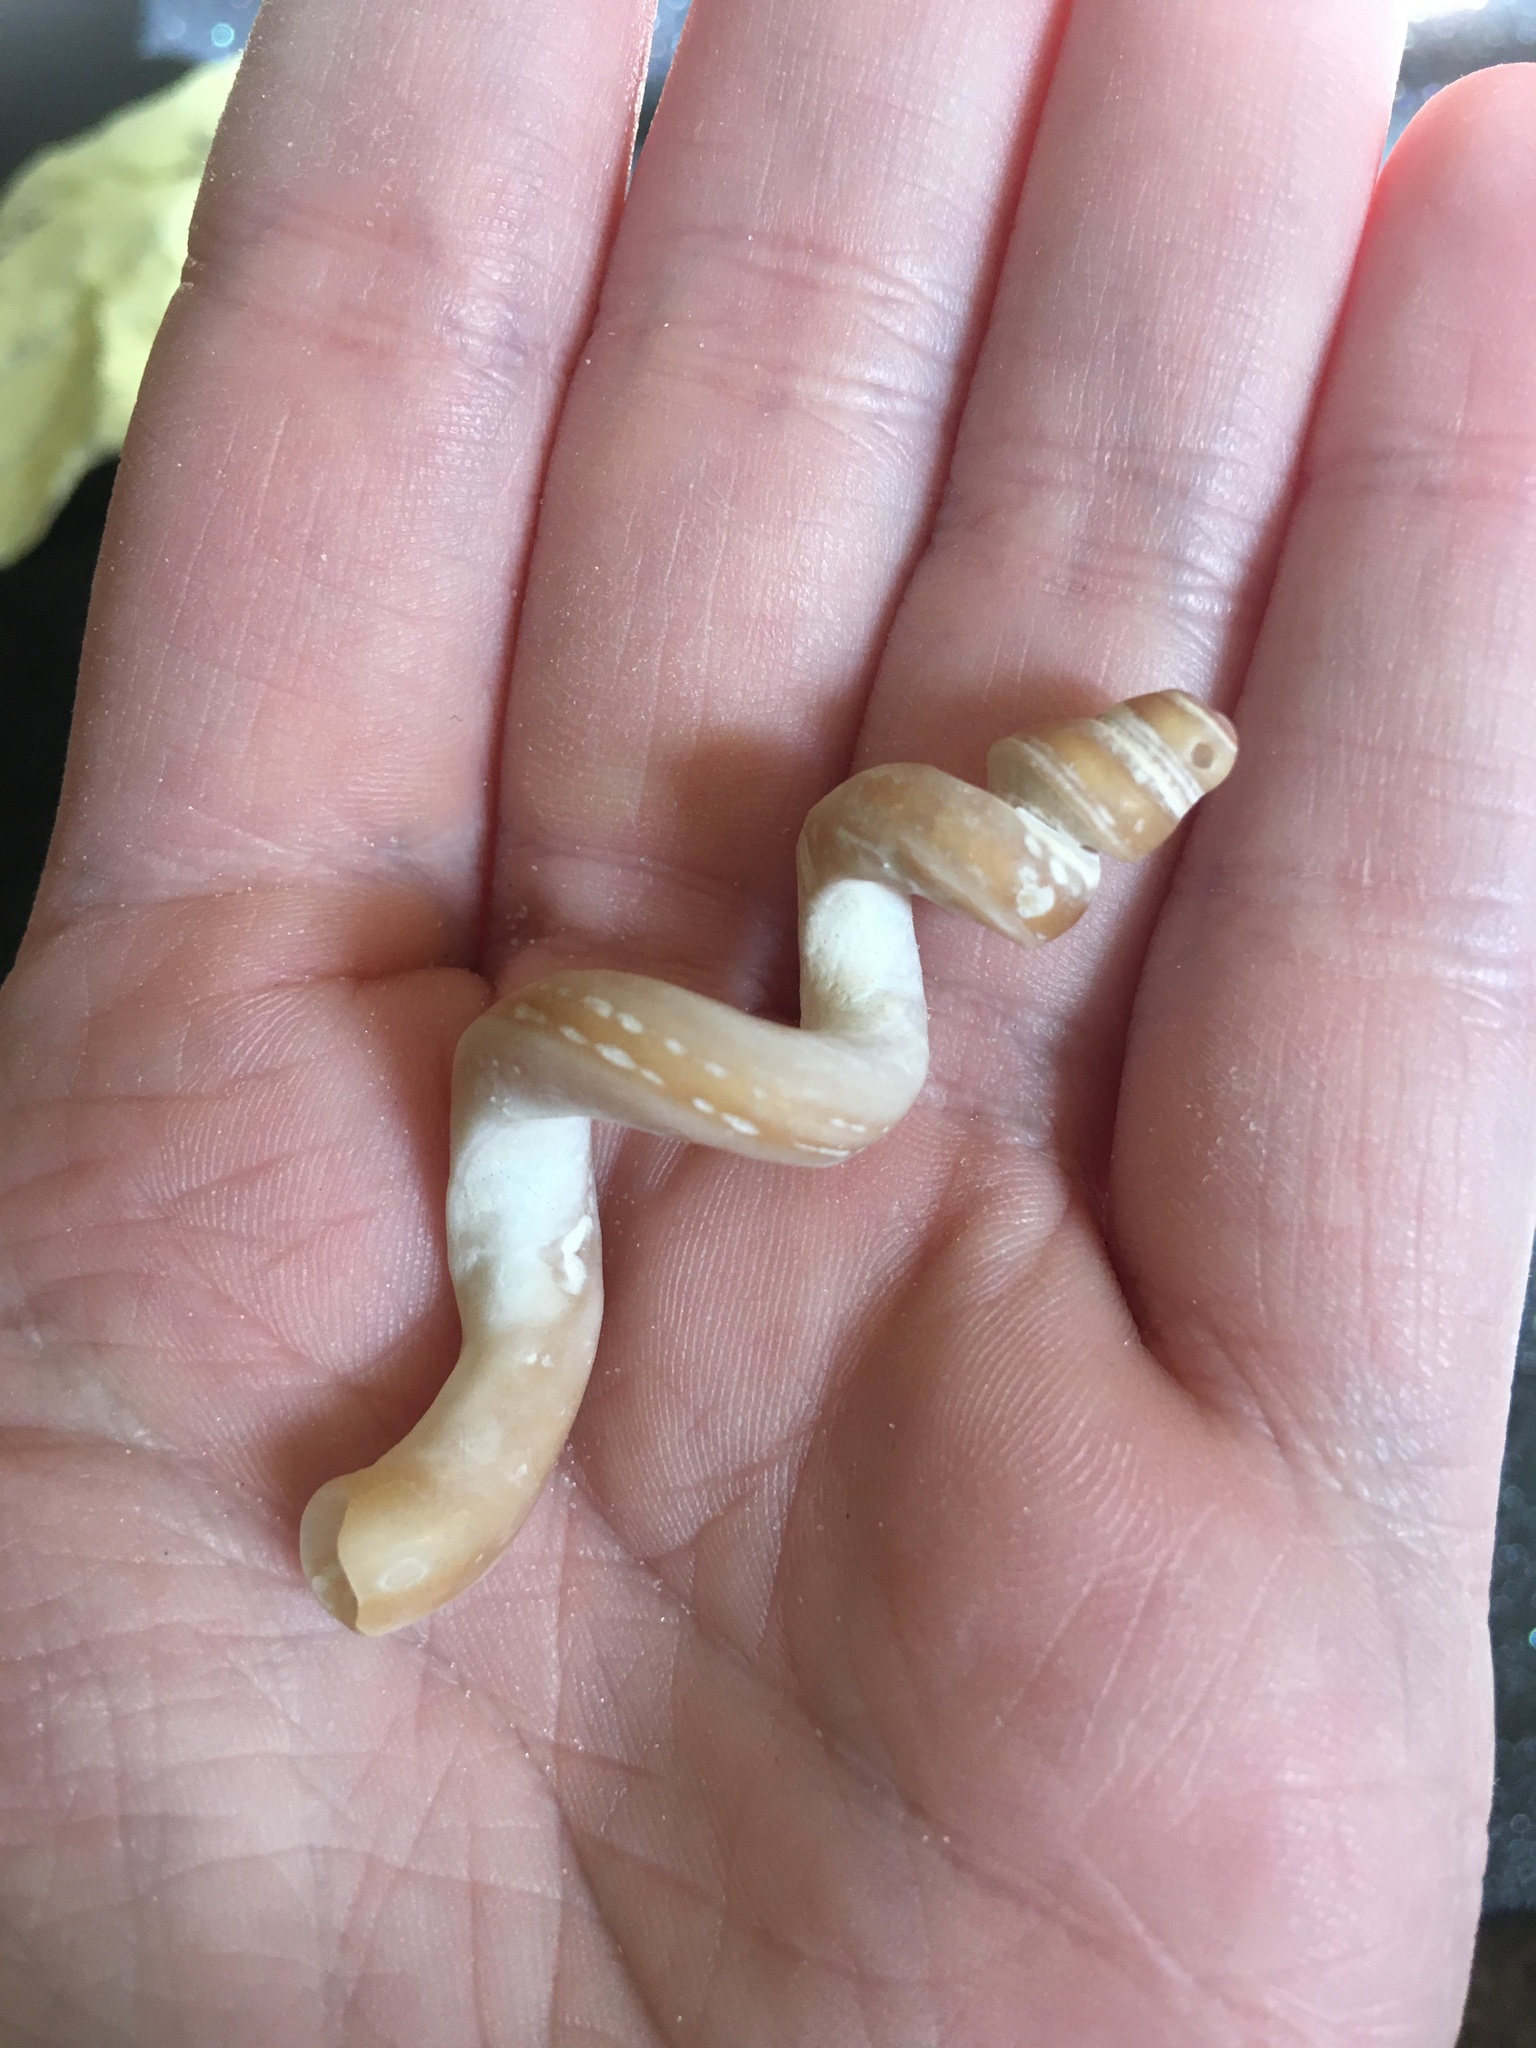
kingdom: Animalia
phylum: Mollusca
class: Gastropoda
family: Turritellidae
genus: Vermicularia
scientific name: Vermicularia fargoi
